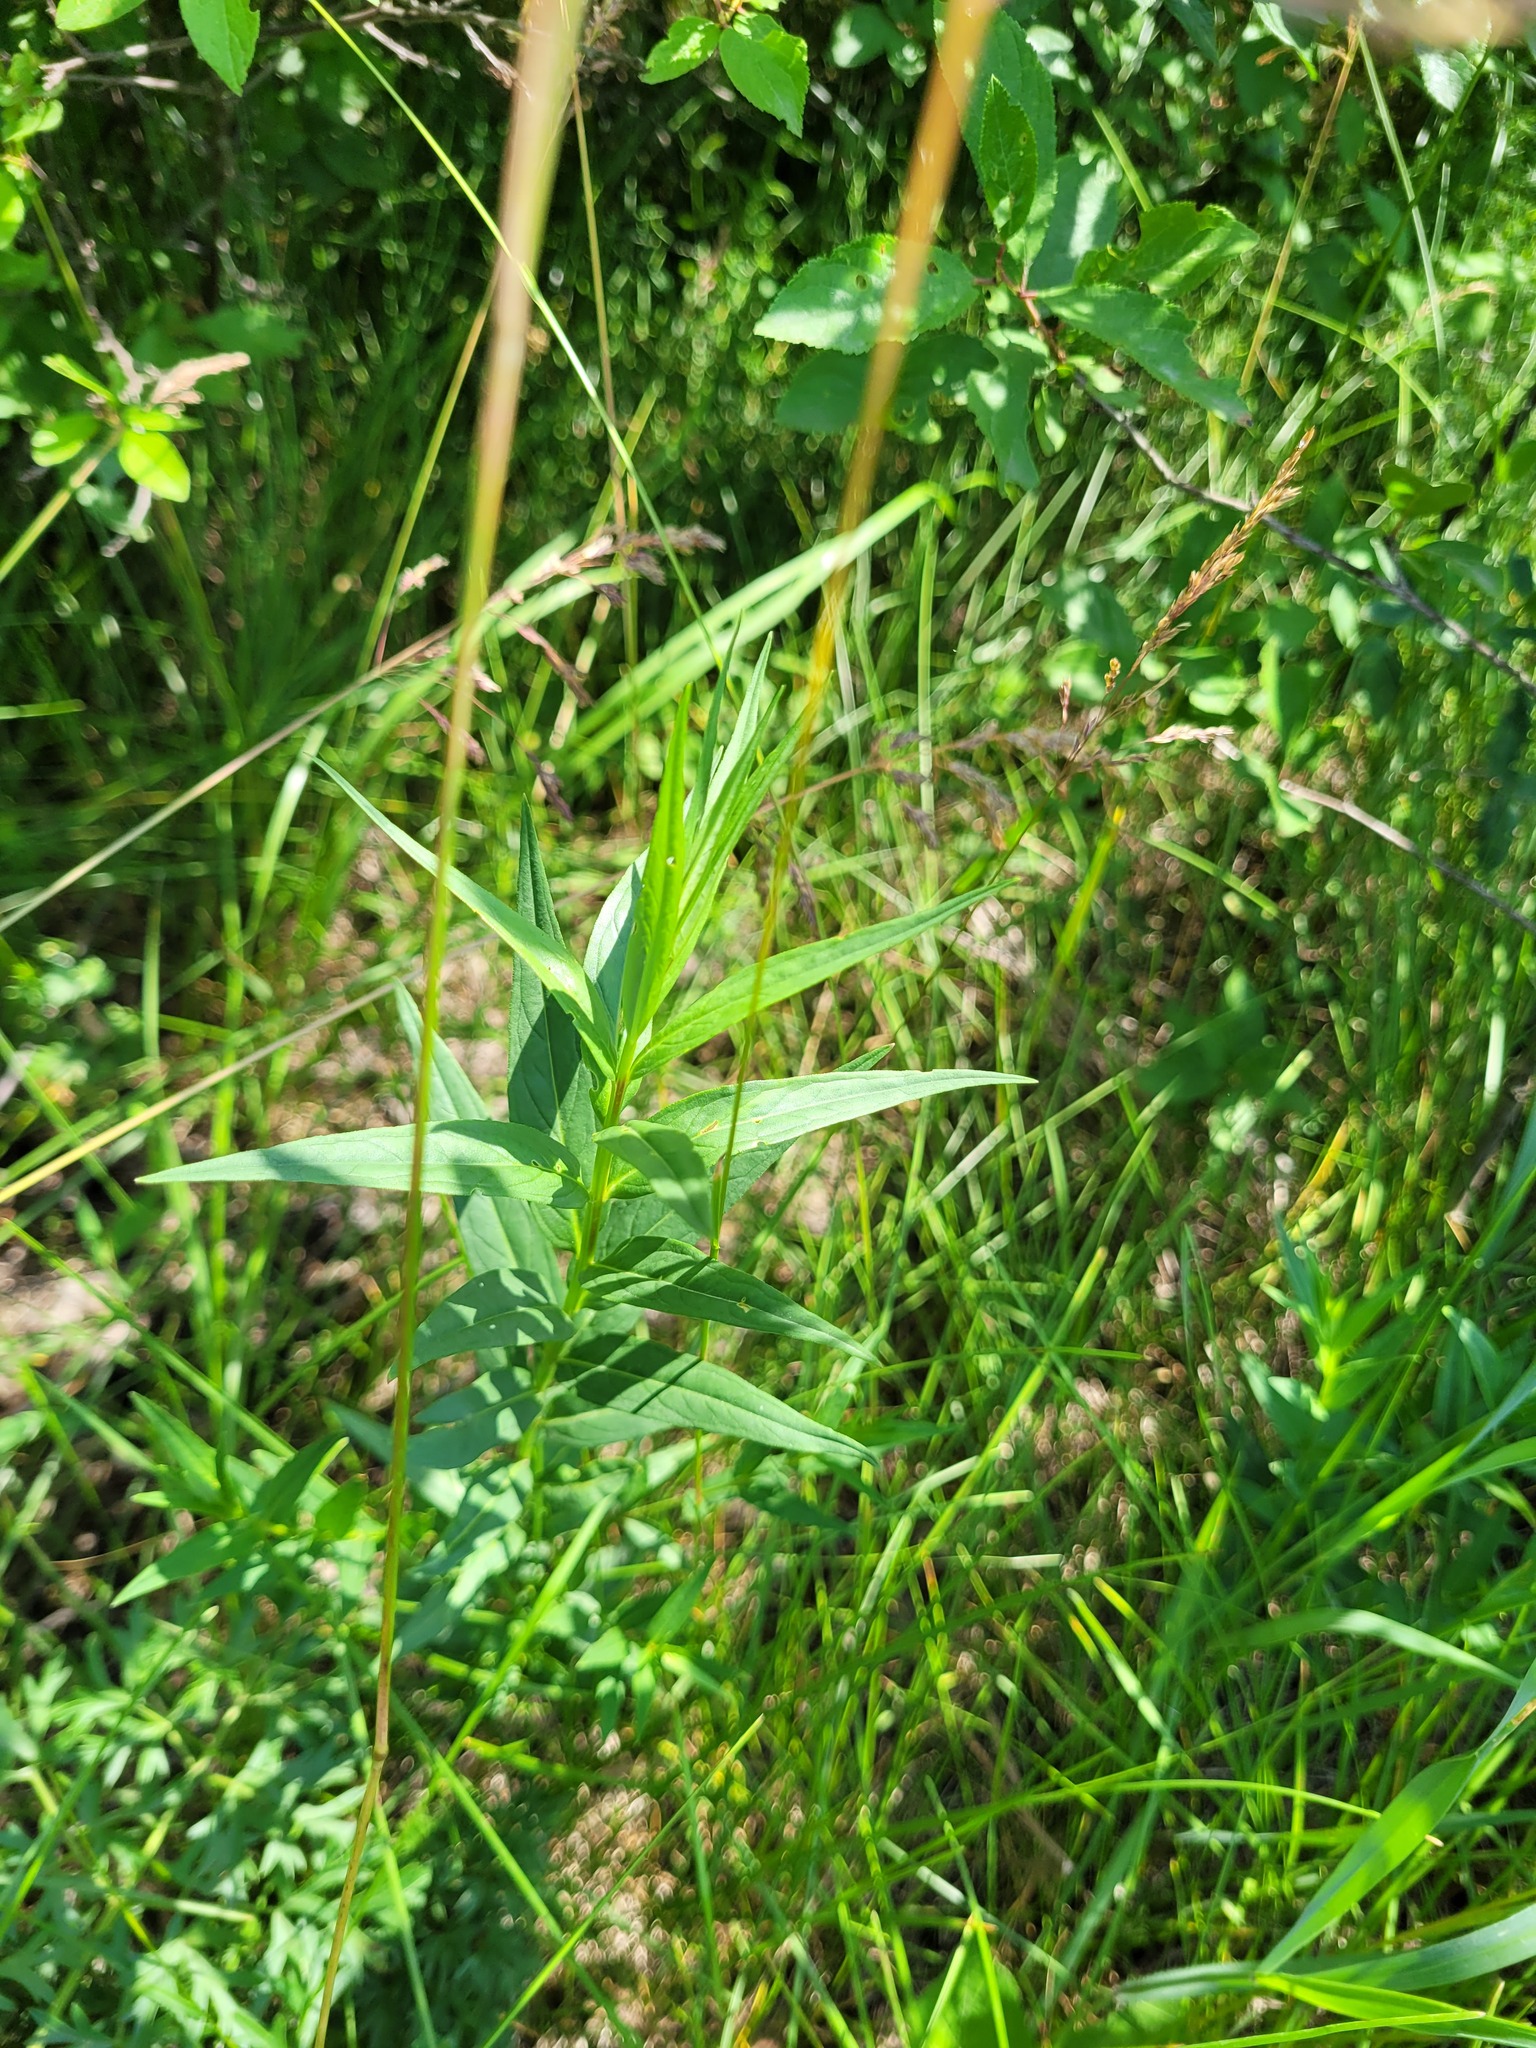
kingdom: Plantae
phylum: Tracheophyta
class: Magnoliopsida
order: Myrtales
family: Lythraceae
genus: Lythrum
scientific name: Lythrum virgatum
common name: European wand loosestrife
